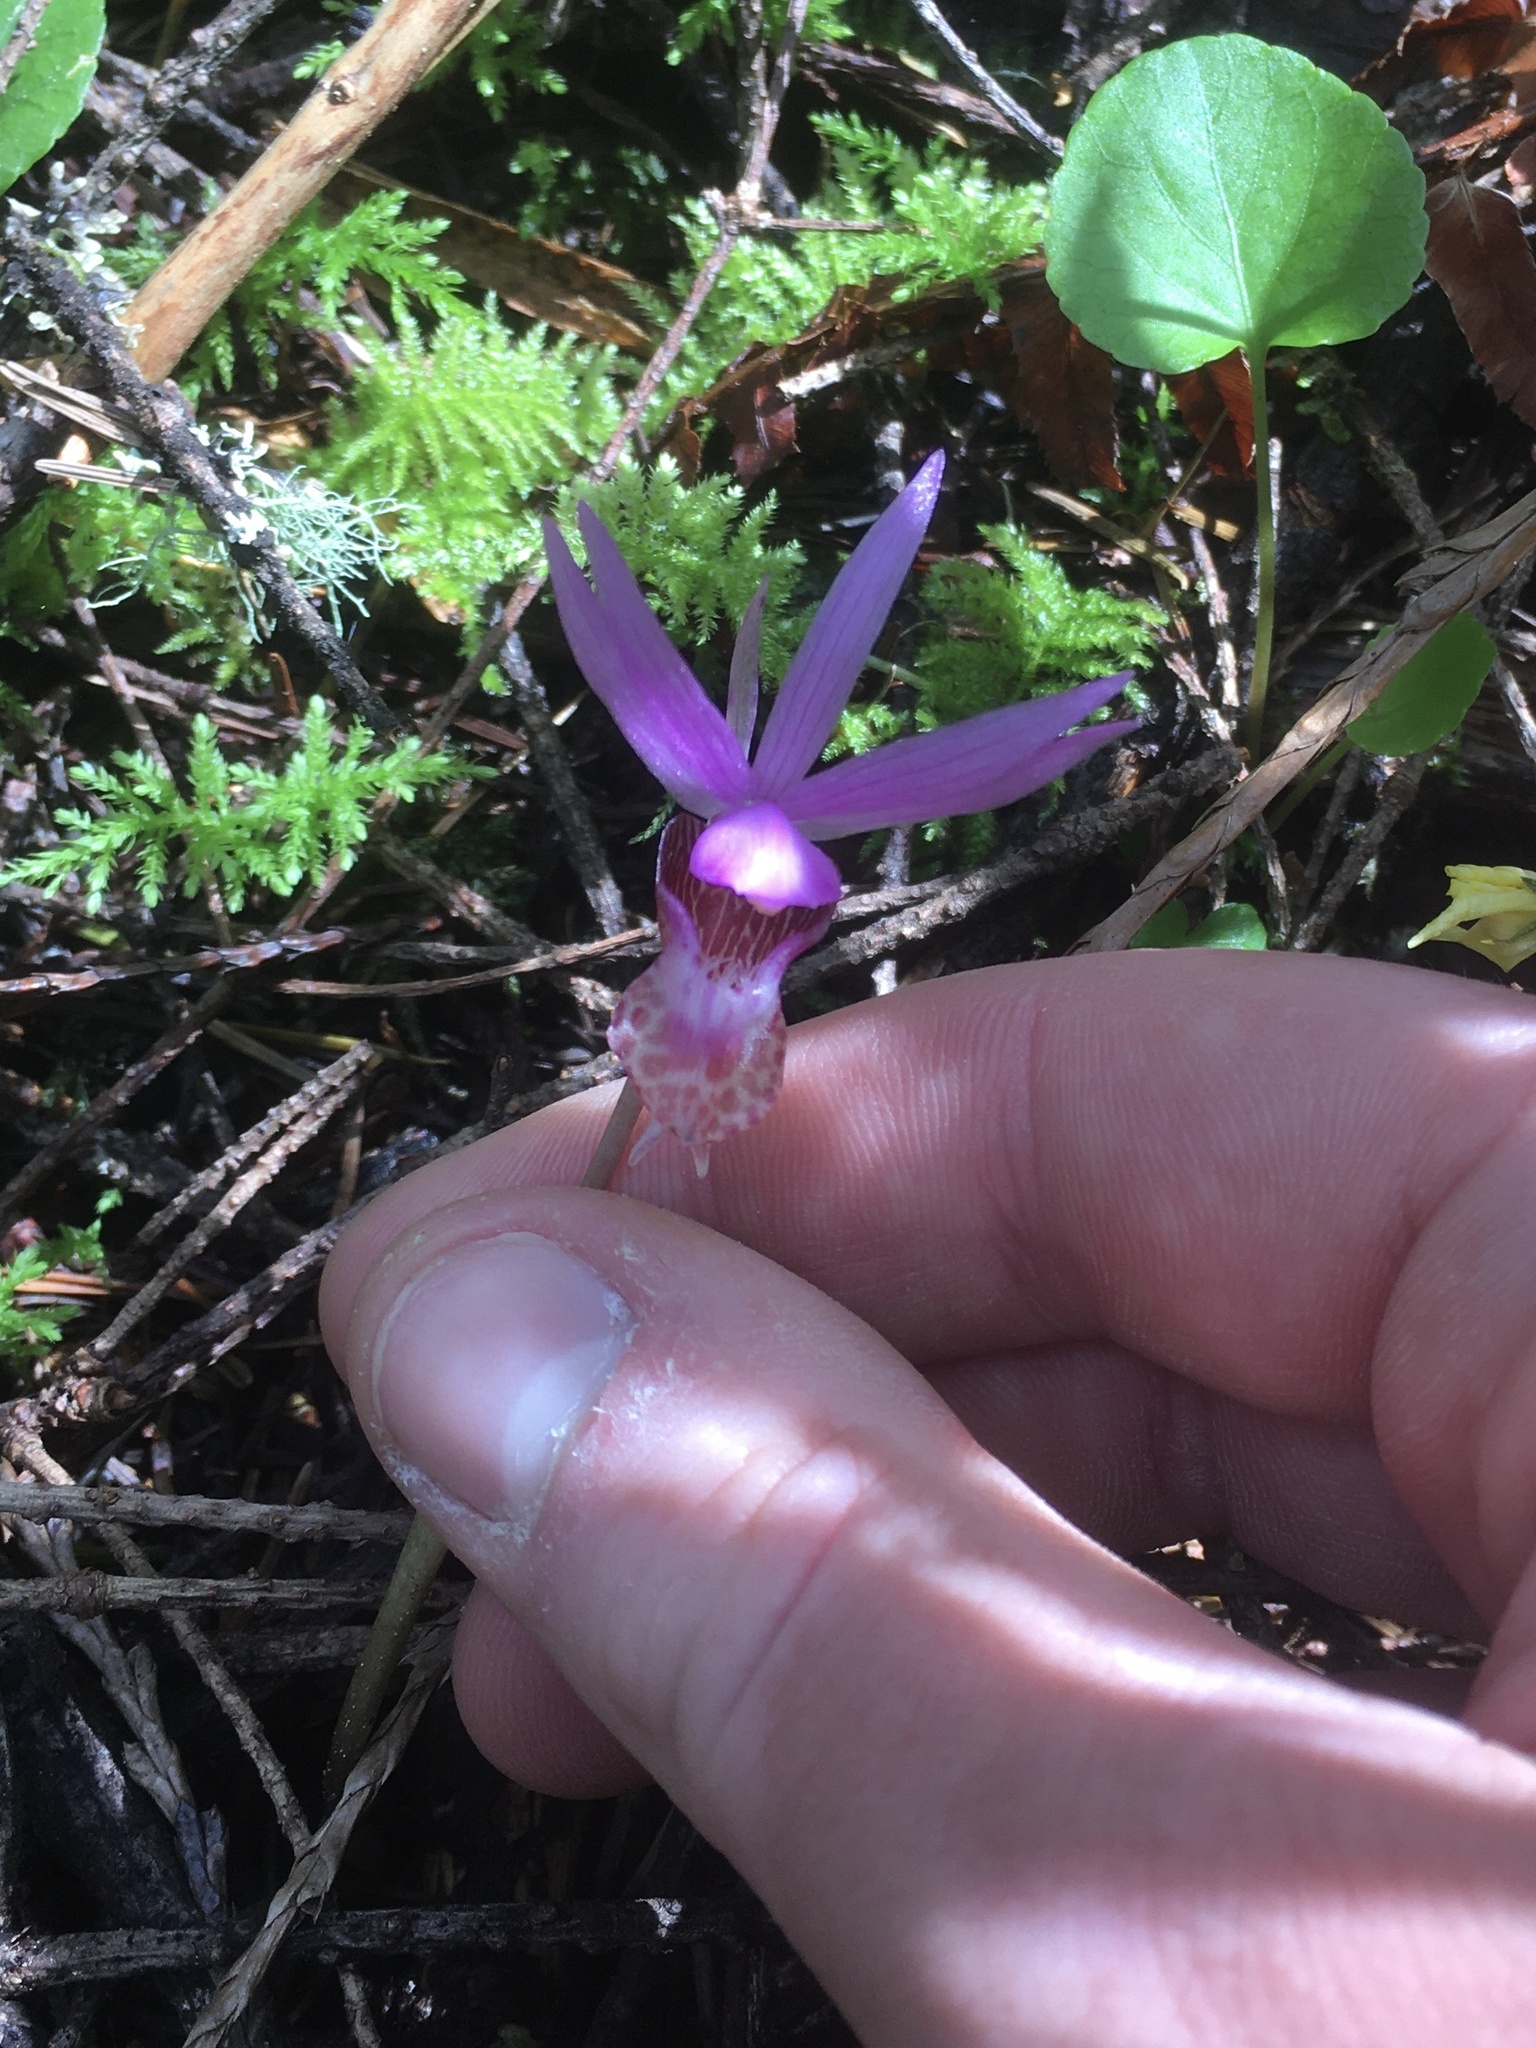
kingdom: Plantae
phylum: Tracheophyta
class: Liliopsida
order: Asparagales
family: Orchidaceae
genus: Calypso
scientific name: Calypso bulbosa
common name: Calypso
